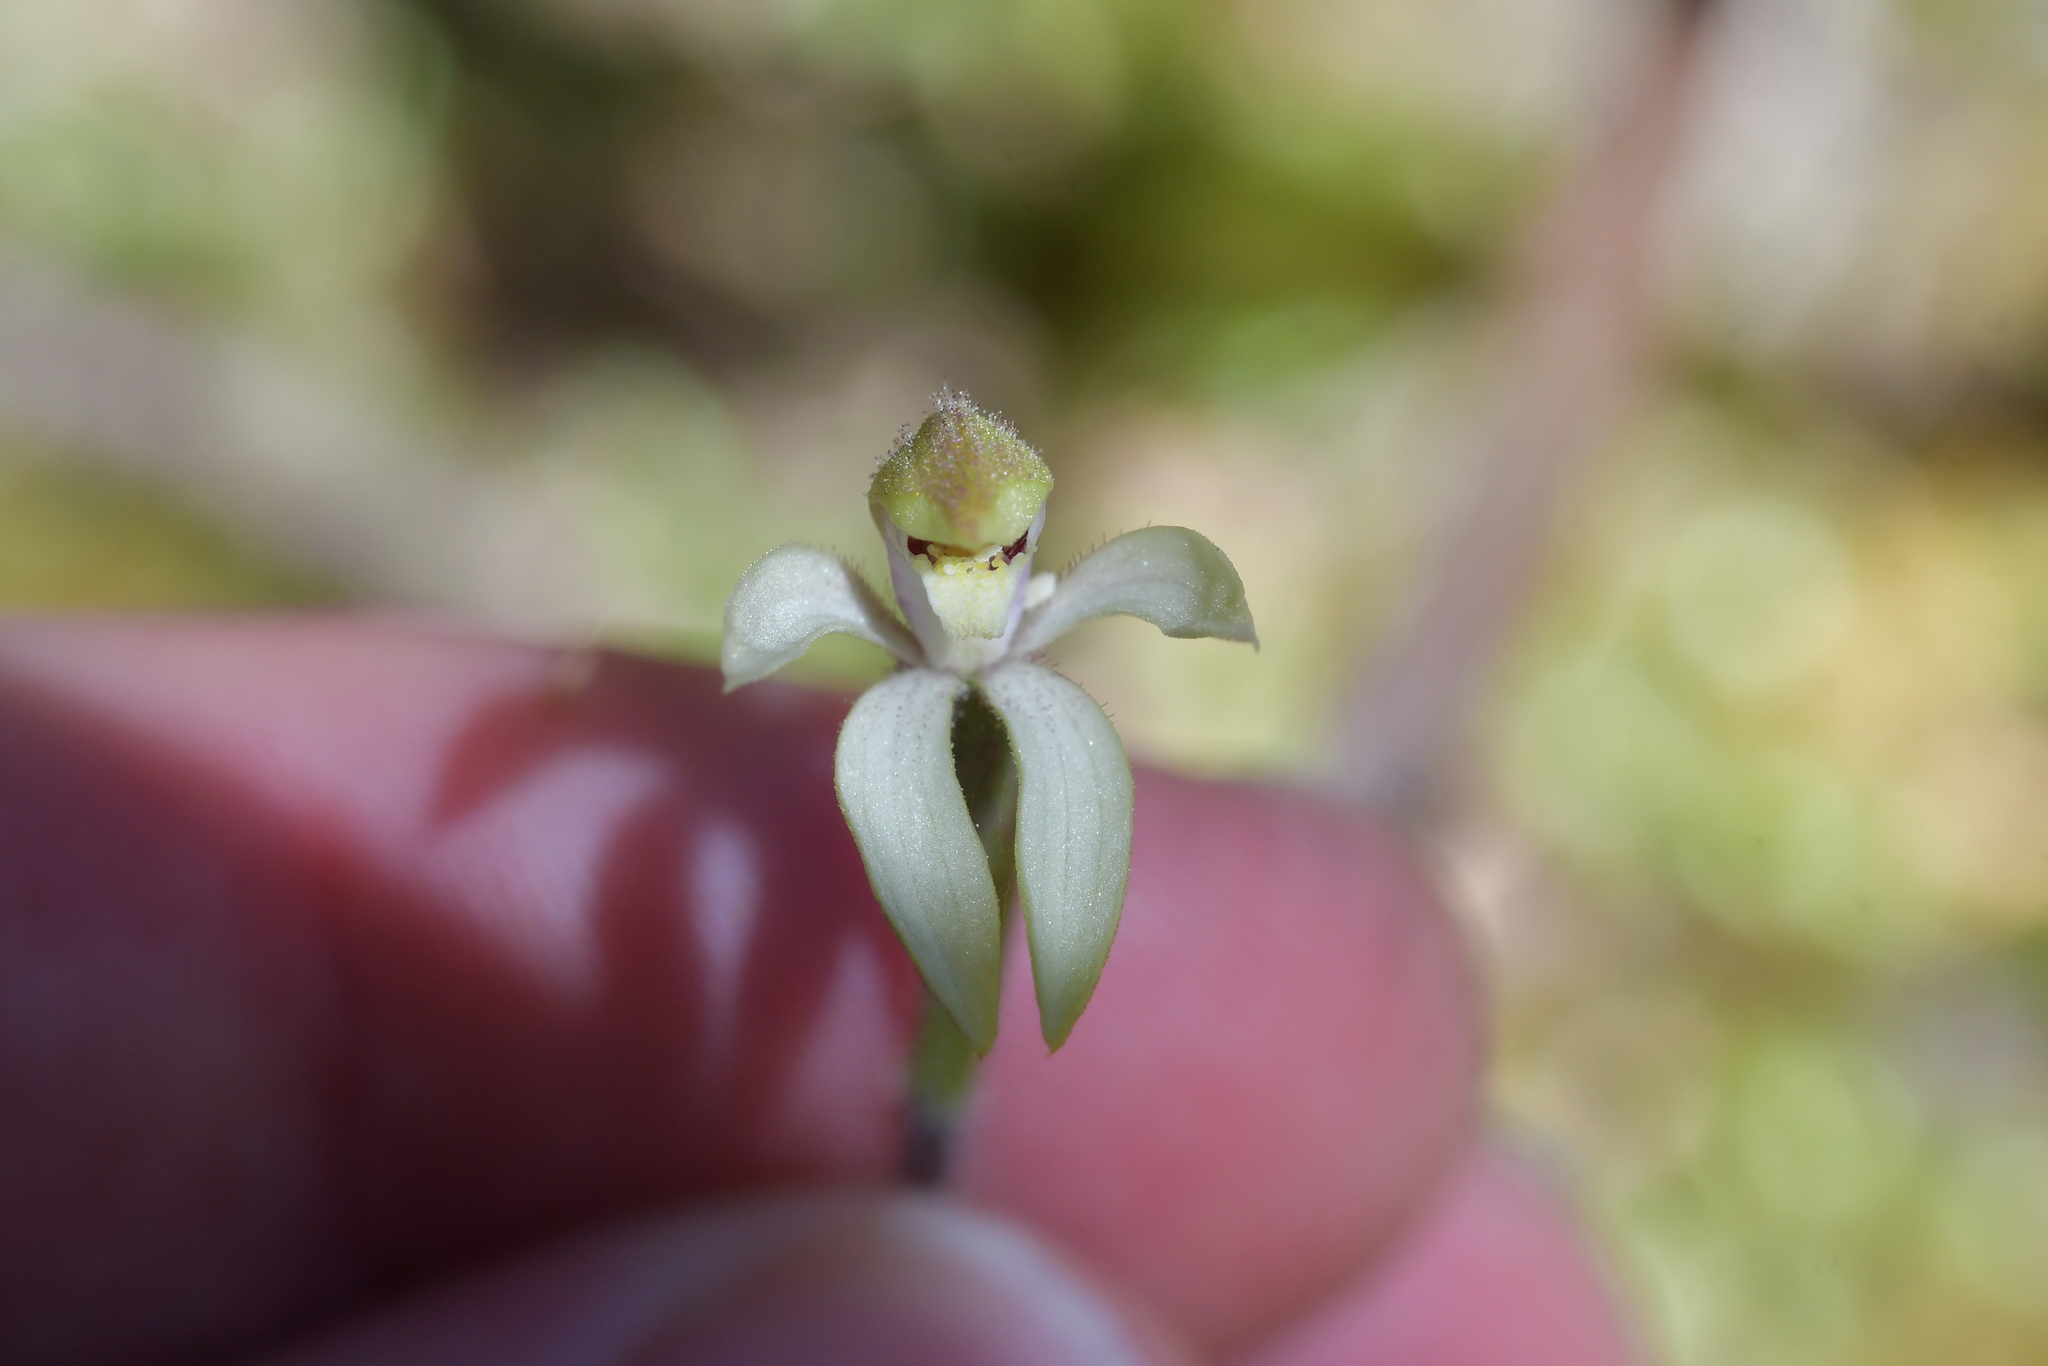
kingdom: Plantae
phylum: Tracheophyta
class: Liliopsida
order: Asparagales
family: Orchidaceae
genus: Caladenia
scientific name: Caladenia lyallii
